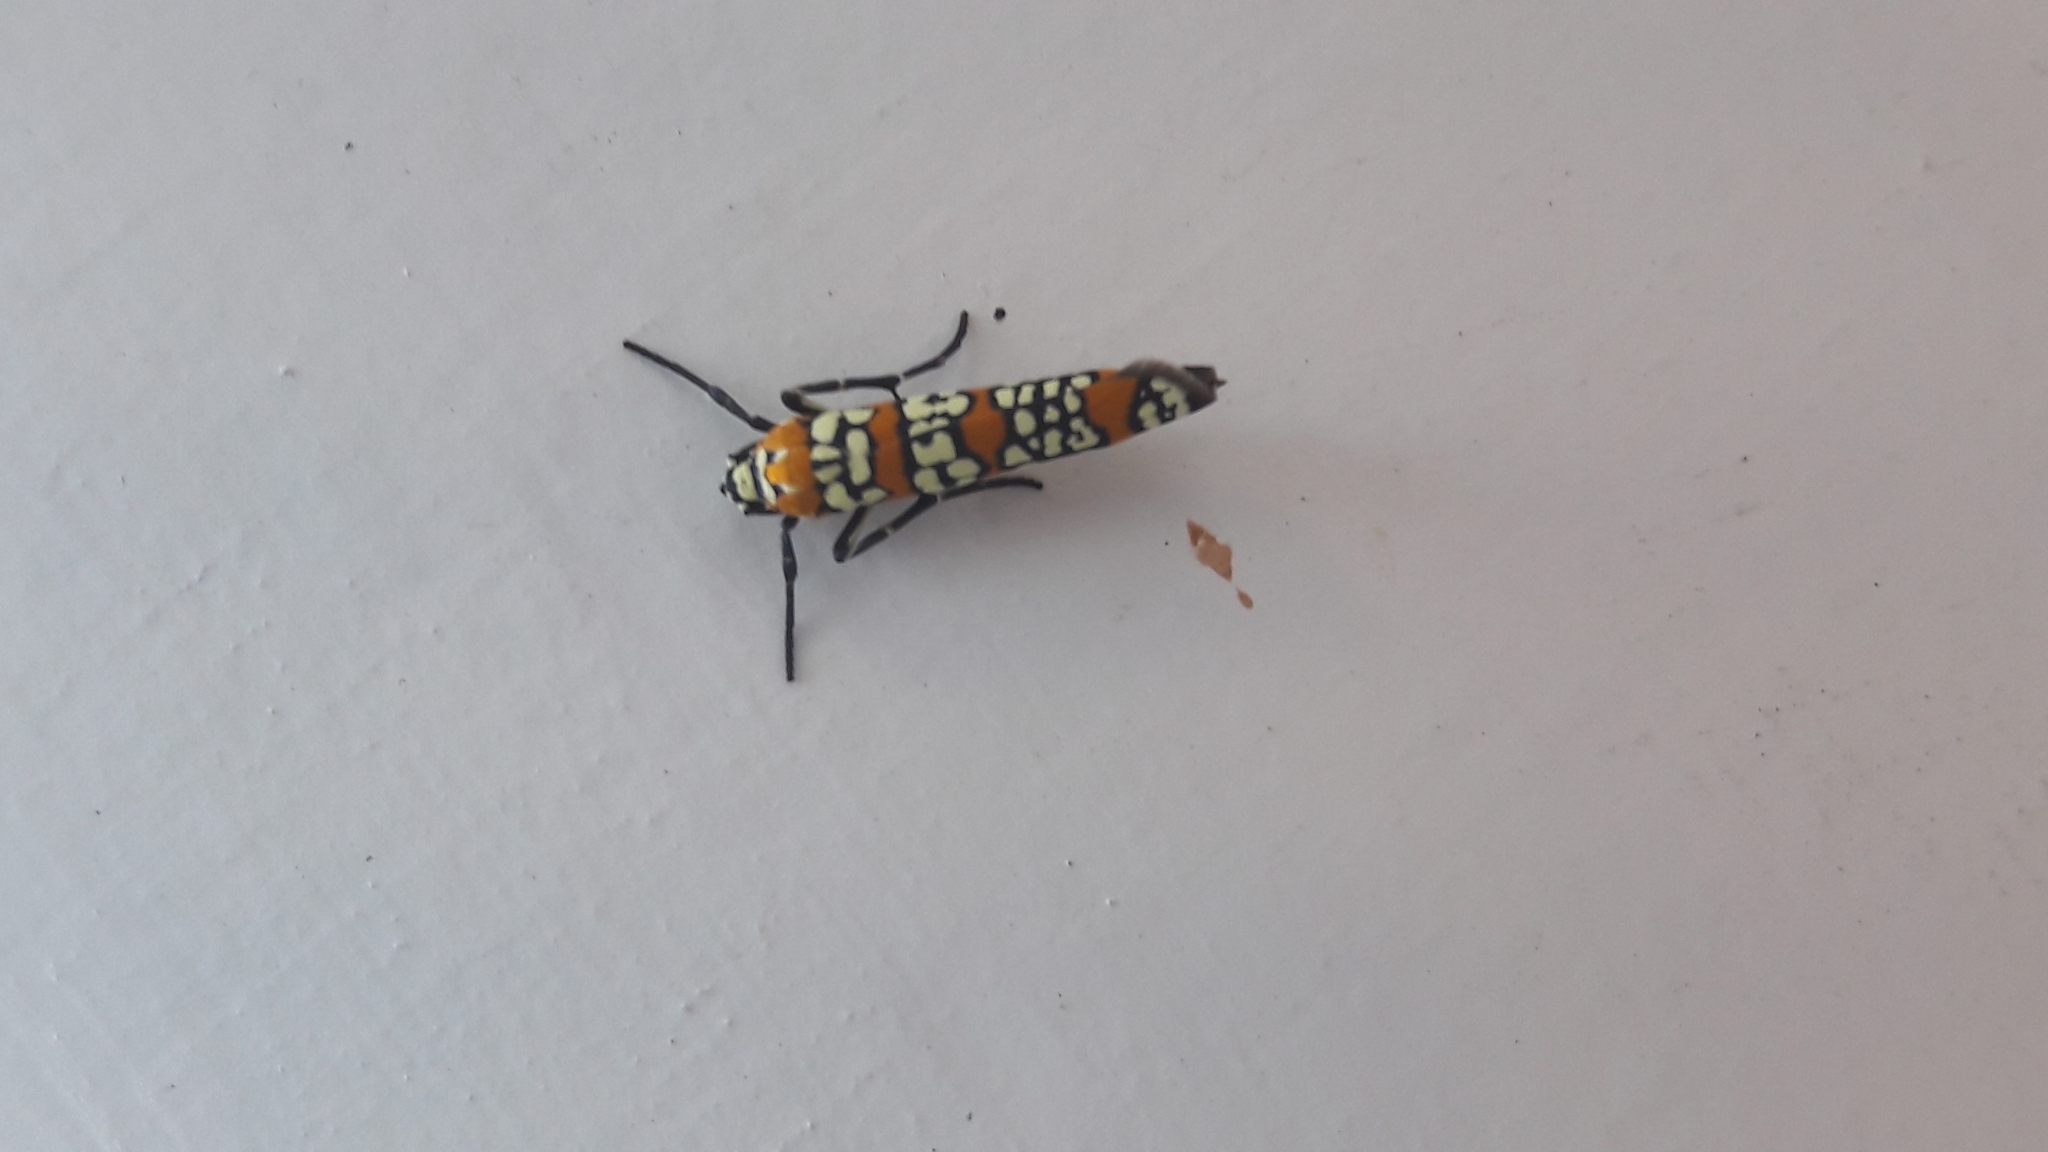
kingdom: Animalia
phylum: Arthropoda
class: Insecta
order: Lepidoptera
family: Attevidae
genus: Atteva
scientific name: Atteva punctella
